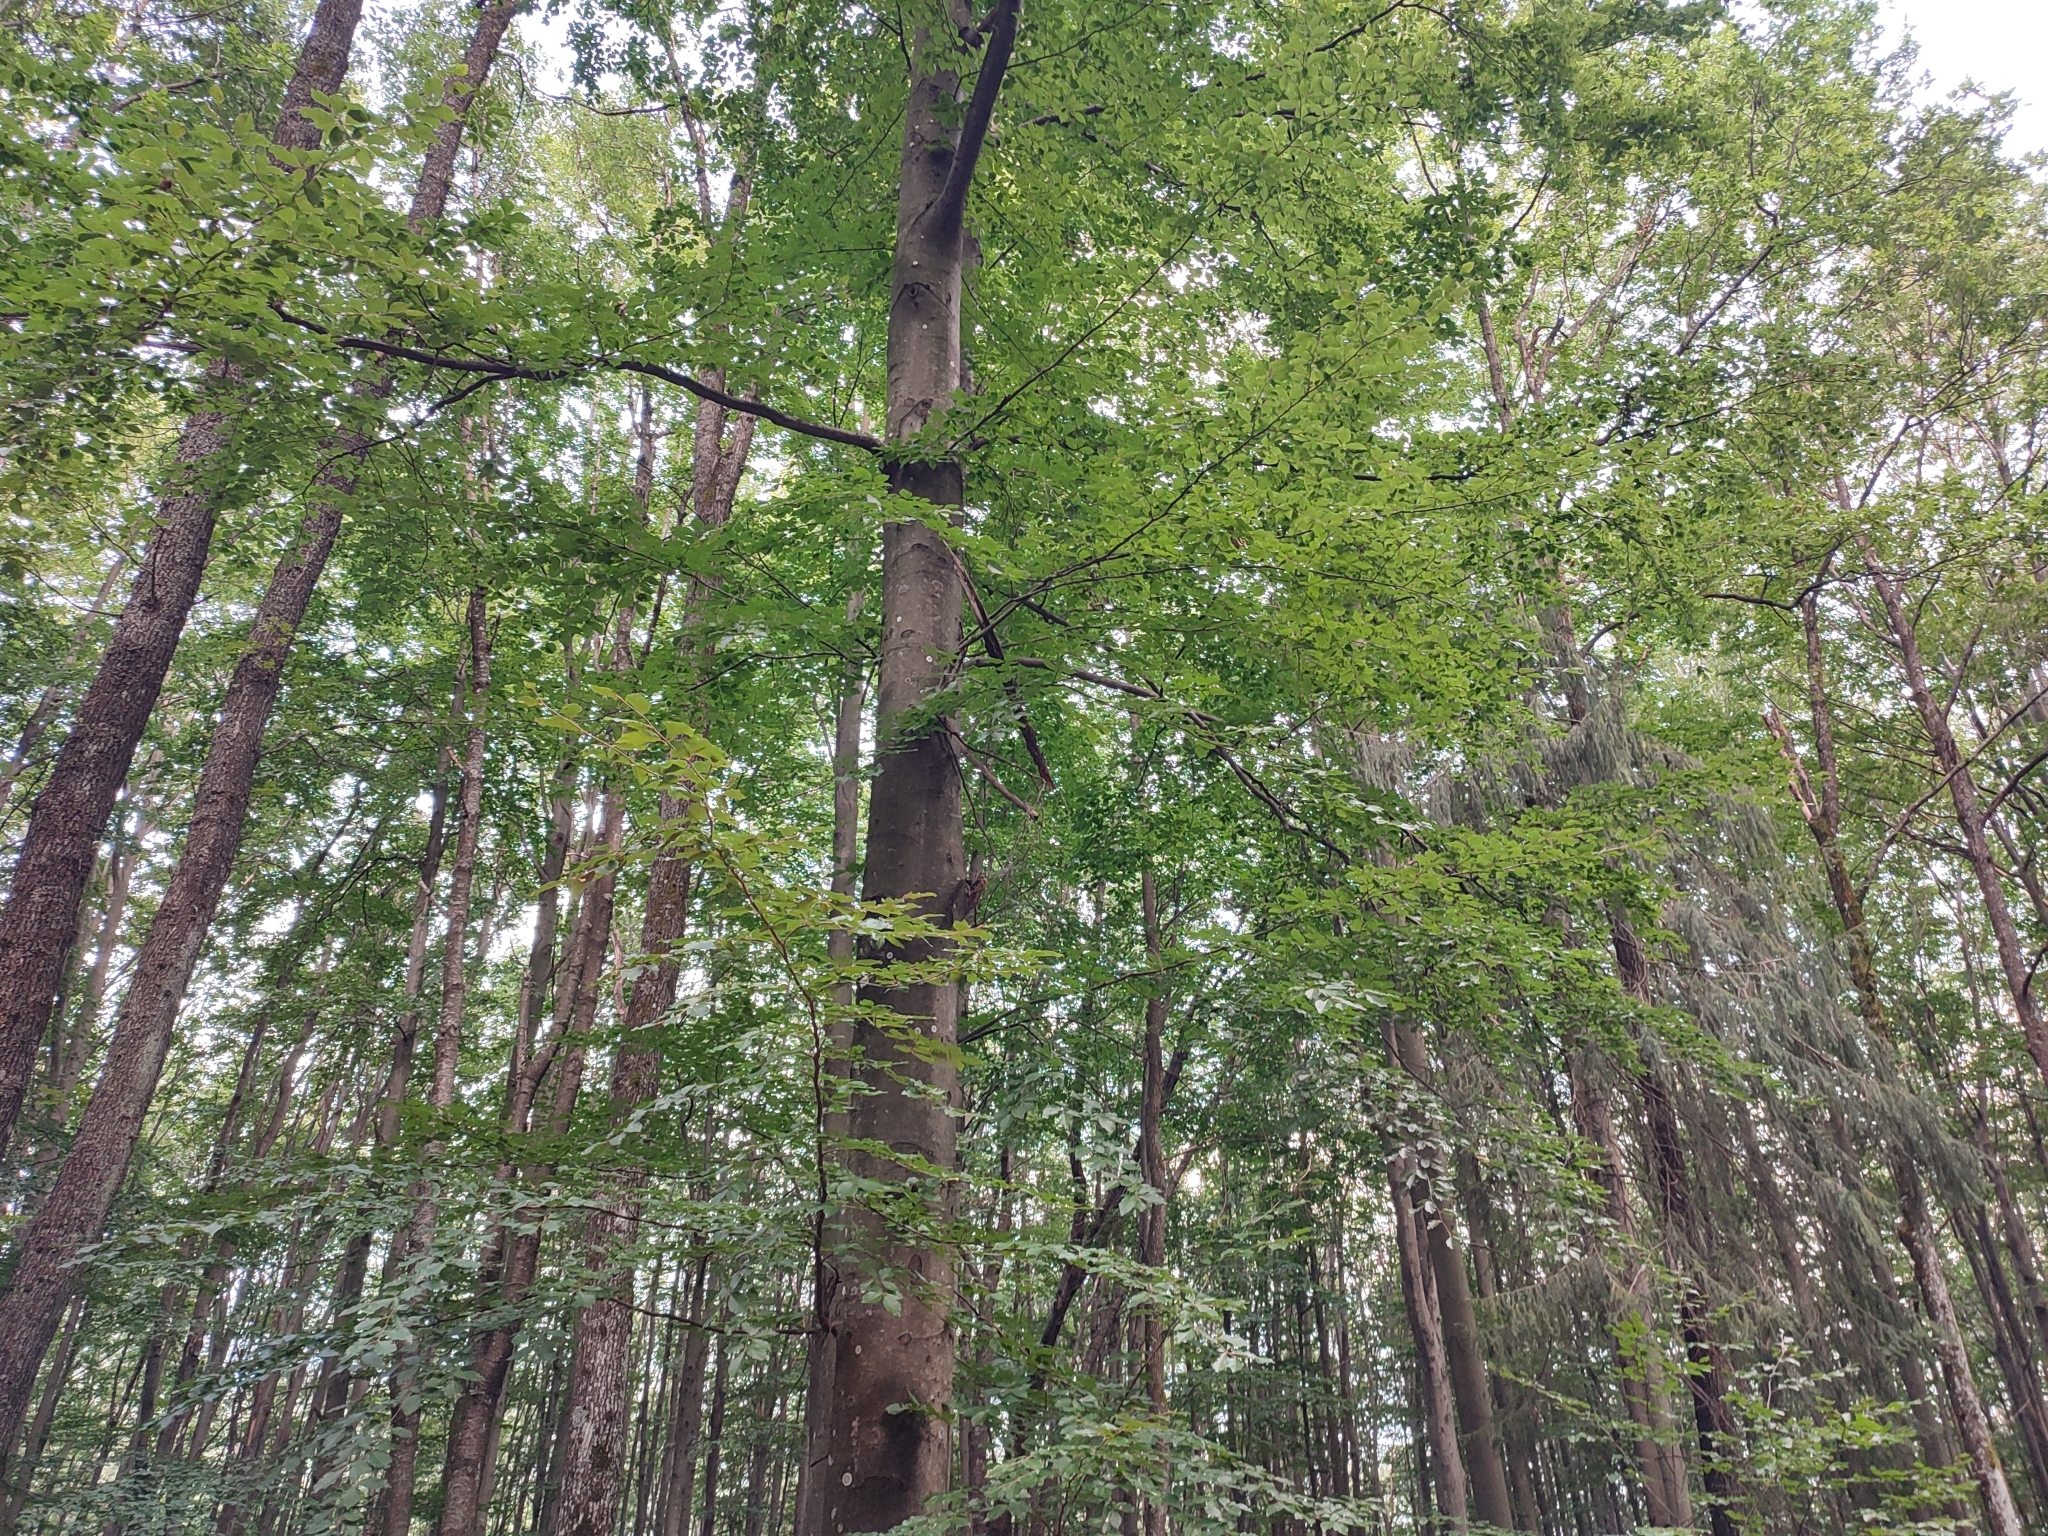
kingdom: Plantae
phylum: Tracheophyta
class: Magnoliopsida
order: Fagales
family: Fagaceae
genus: Fagus
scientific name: Fagus sylvatica
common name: Beech
